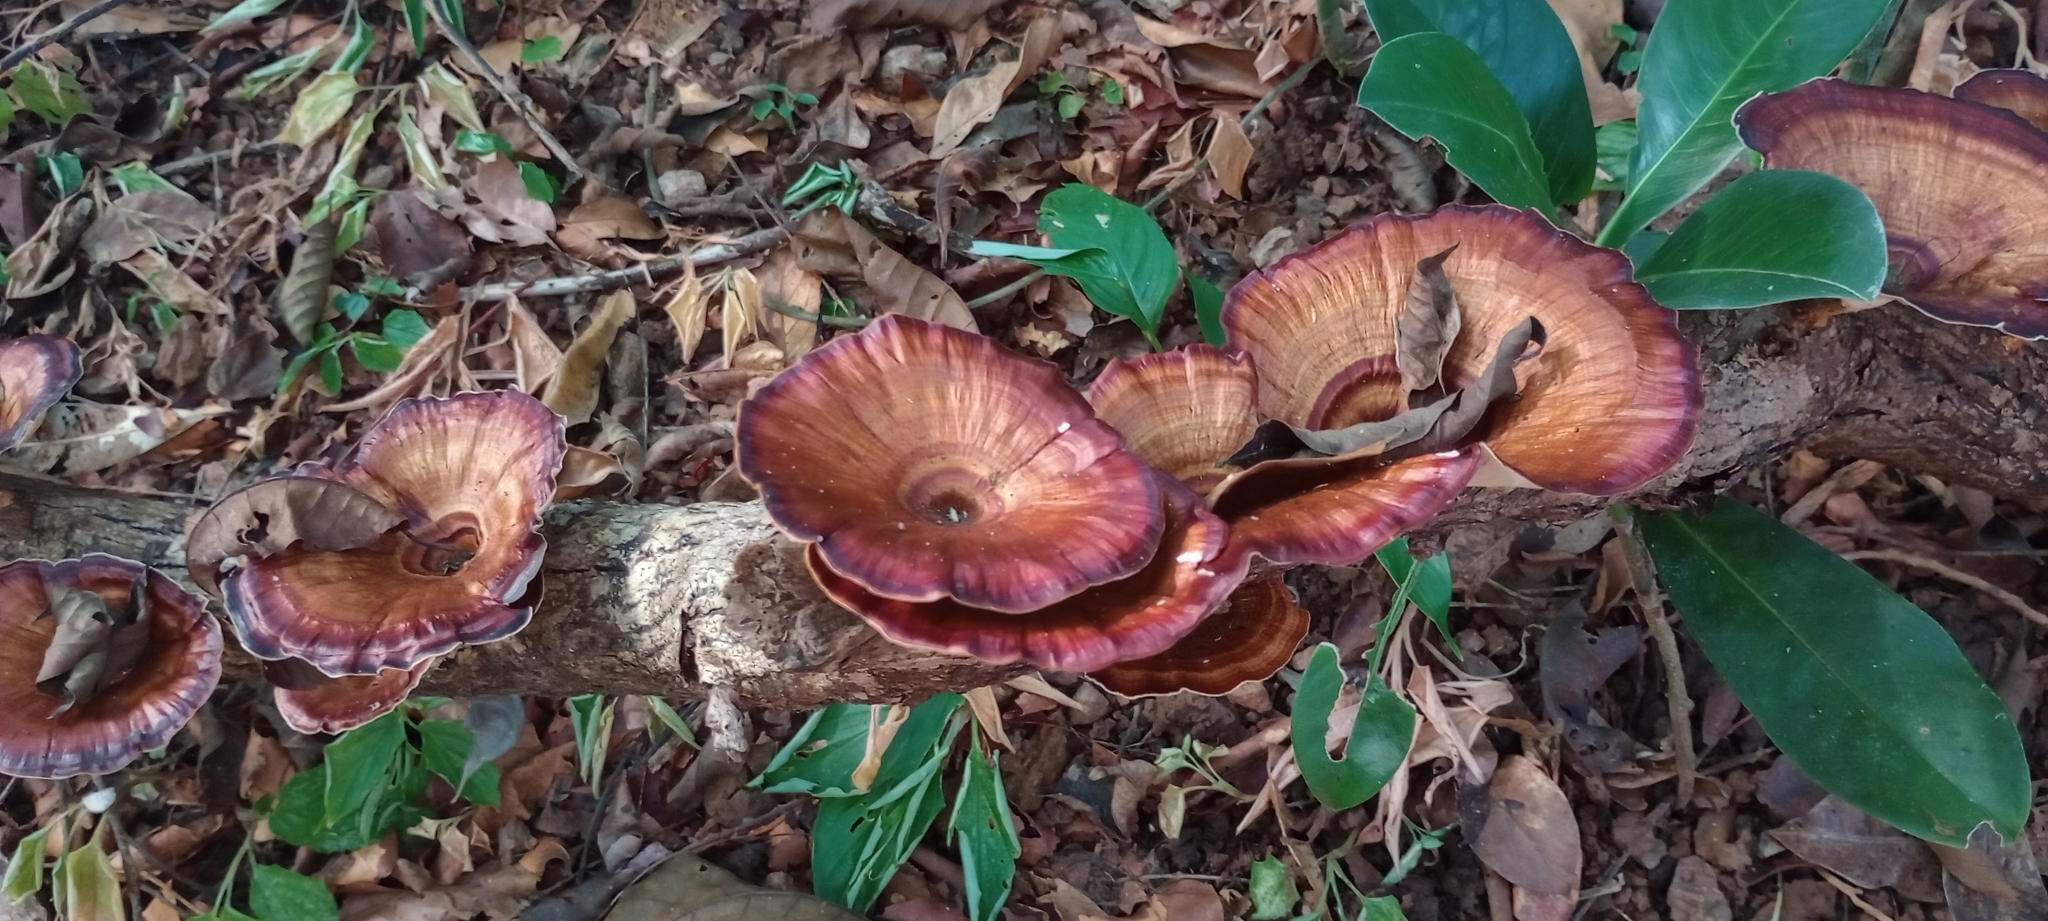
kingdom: Fungi
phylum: Basidiomycota
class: Agaricomycetes
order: Polyporales
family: Polyporaceae
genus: Microporus
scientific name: Microporus xanthopus
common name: Yellow-stemmed micropore
